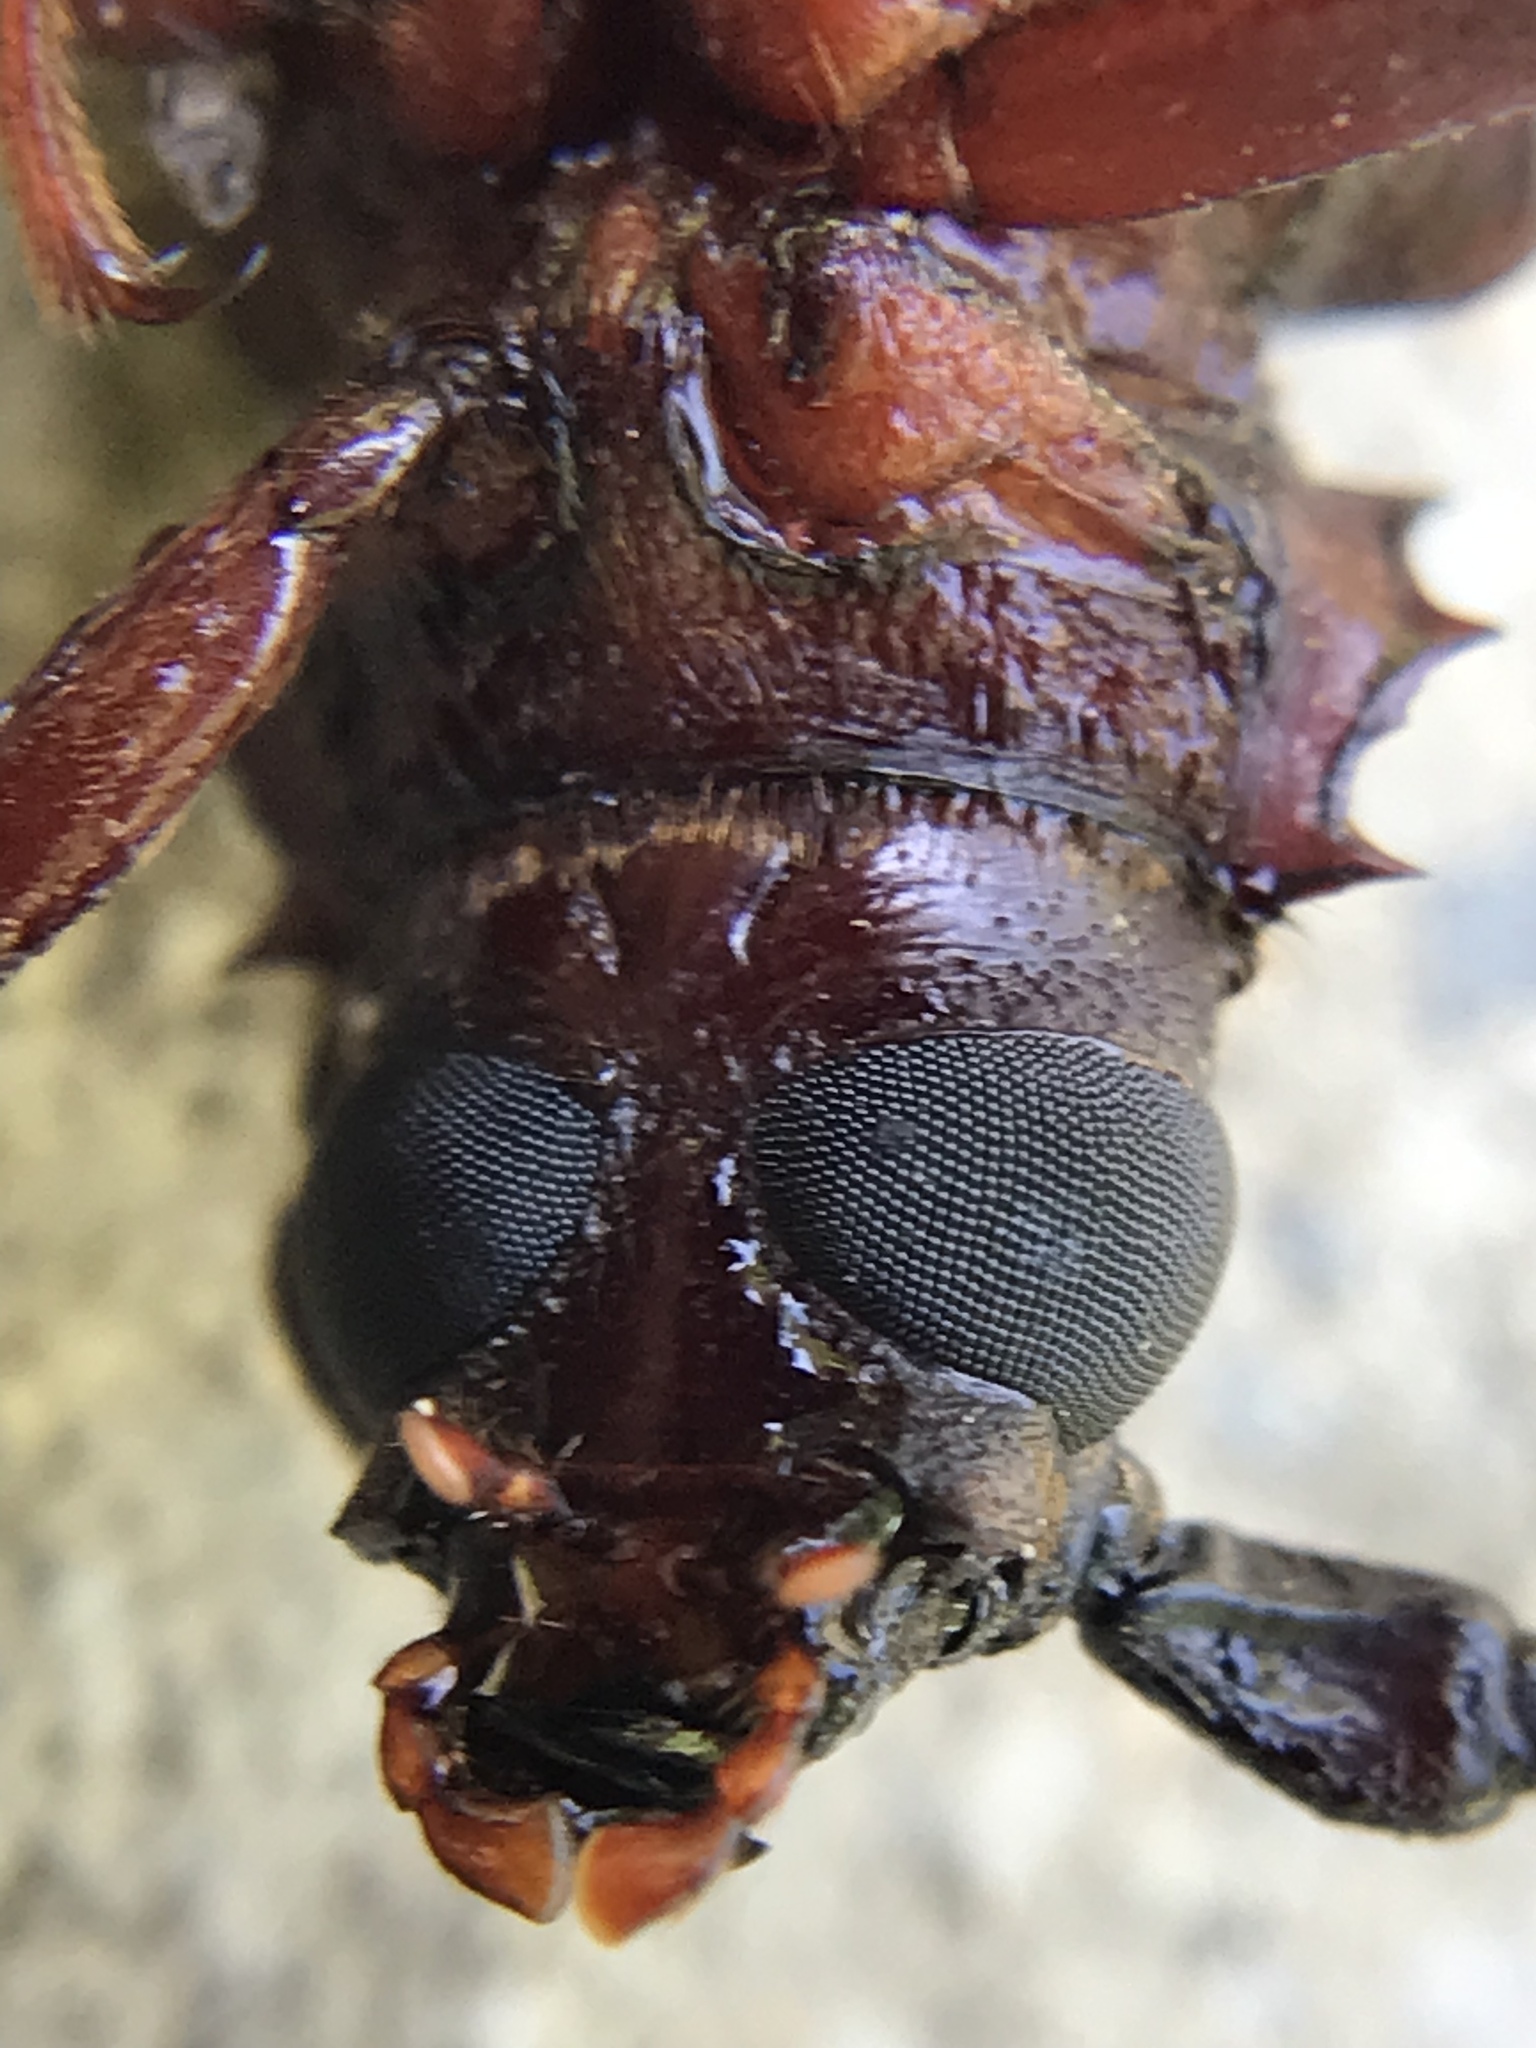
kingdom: Animalia
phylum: Arthropoda
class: Insecta
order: Coleoptera
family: Cerambycidae
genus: Orthosoma
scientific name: Orthosoma brunneum
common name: Brown prionid beetle
